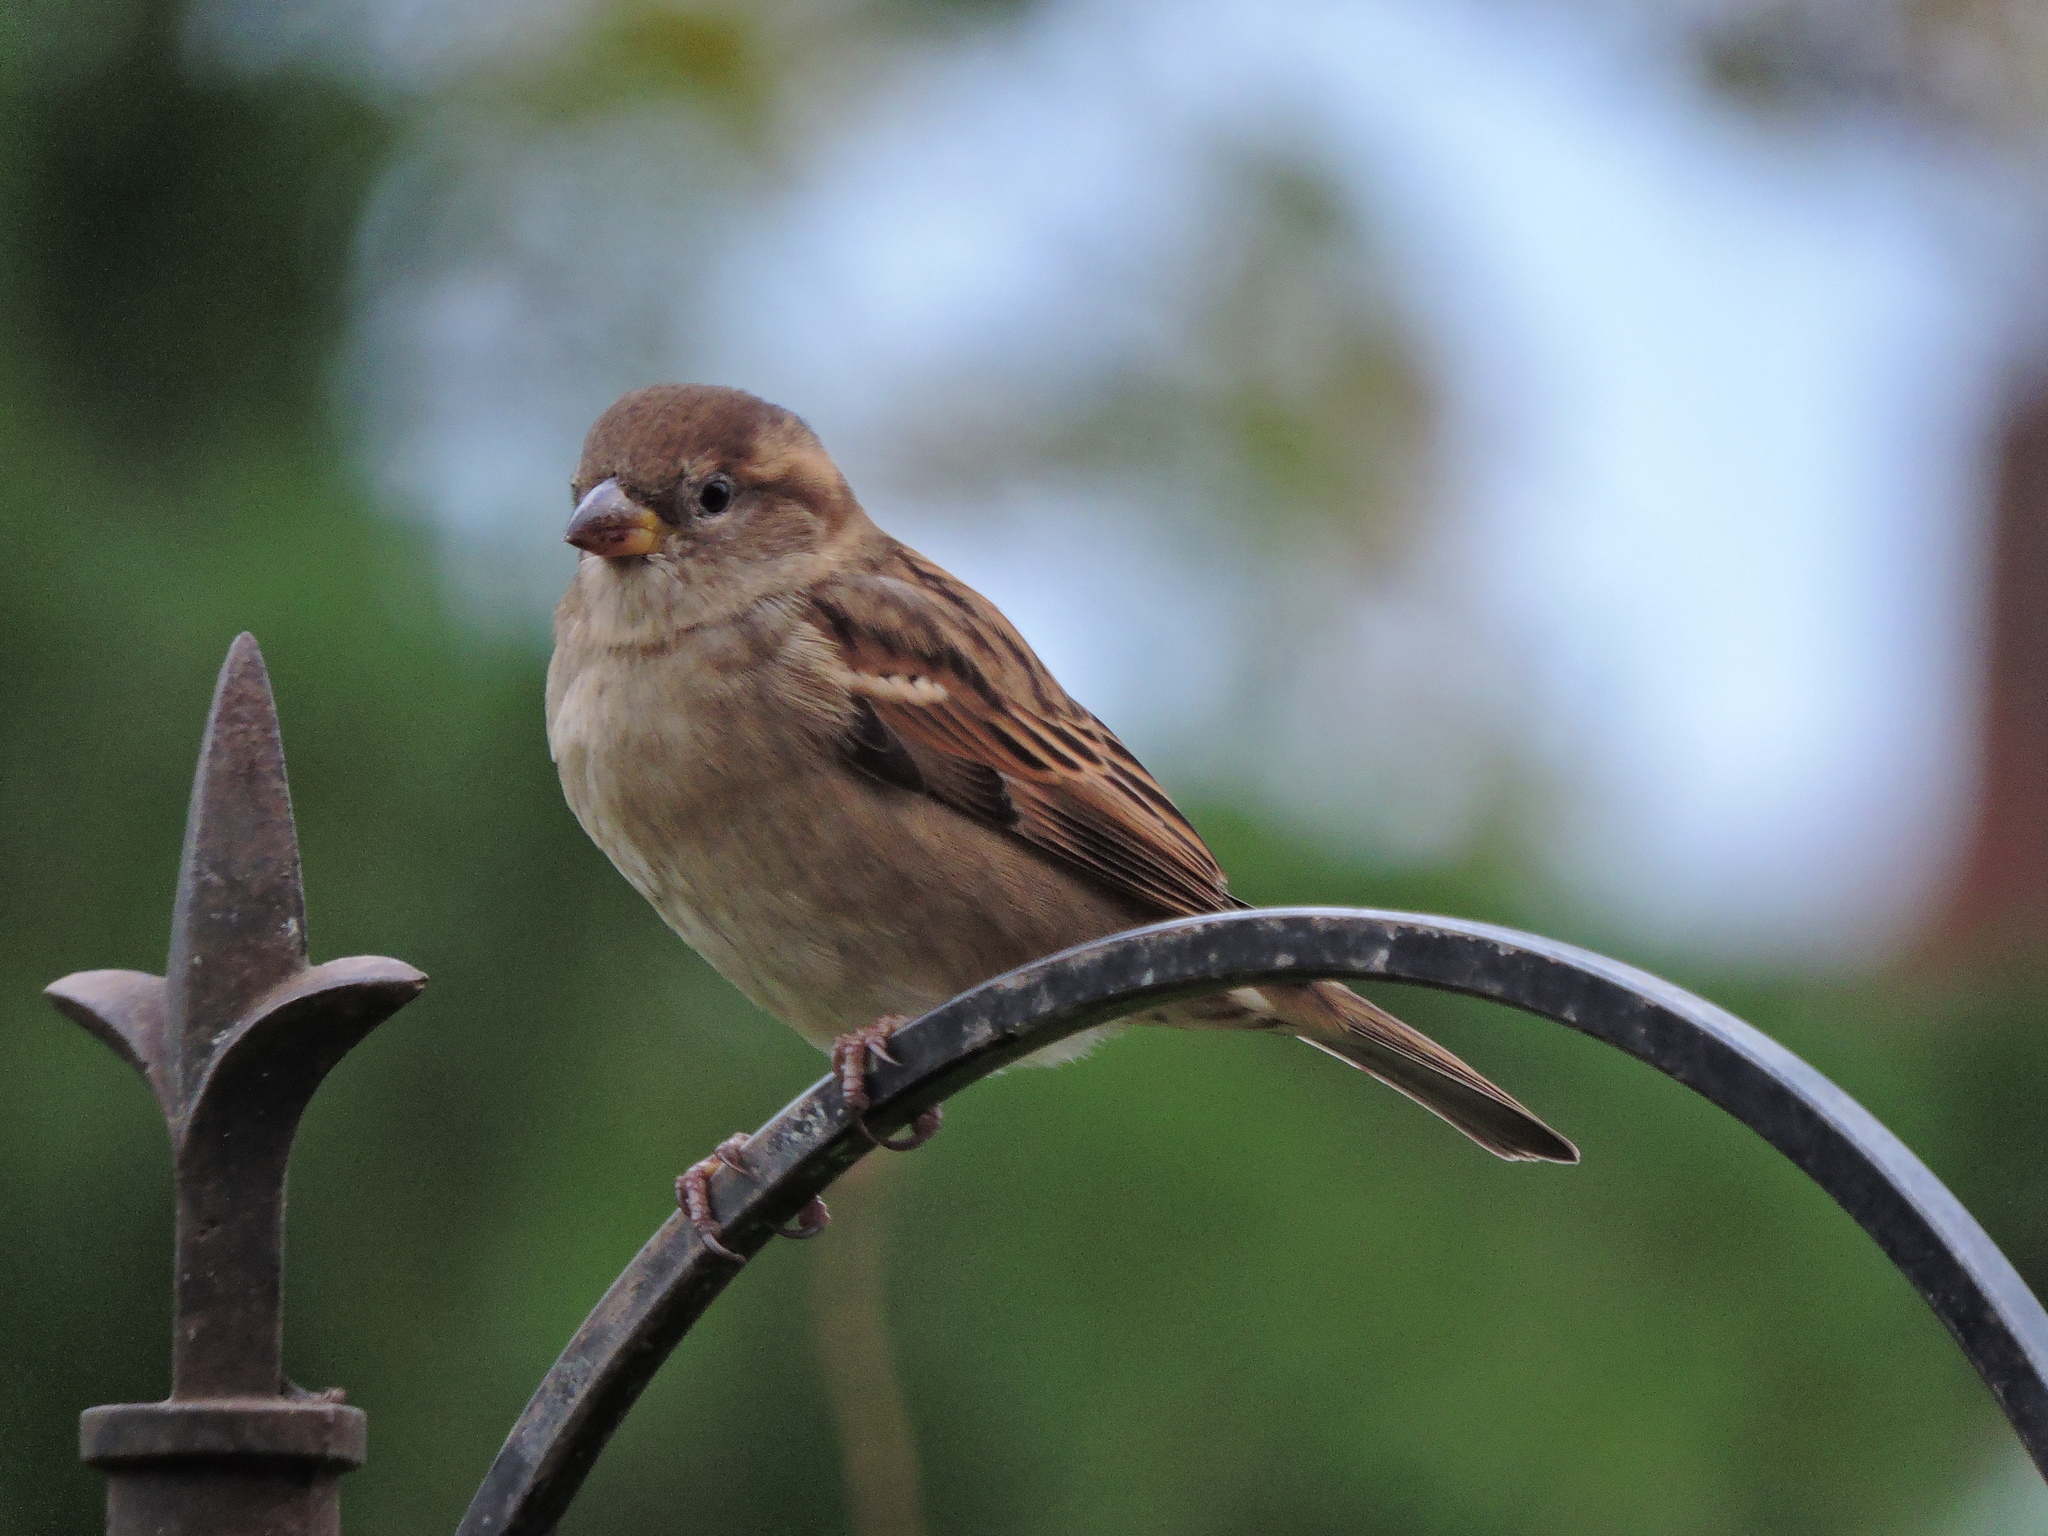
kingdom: Animalia
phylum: Chordata
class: Aves
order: Passeriformes
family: Passeridae
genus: Passer
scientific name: Passer domesticus
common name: House sparrow
